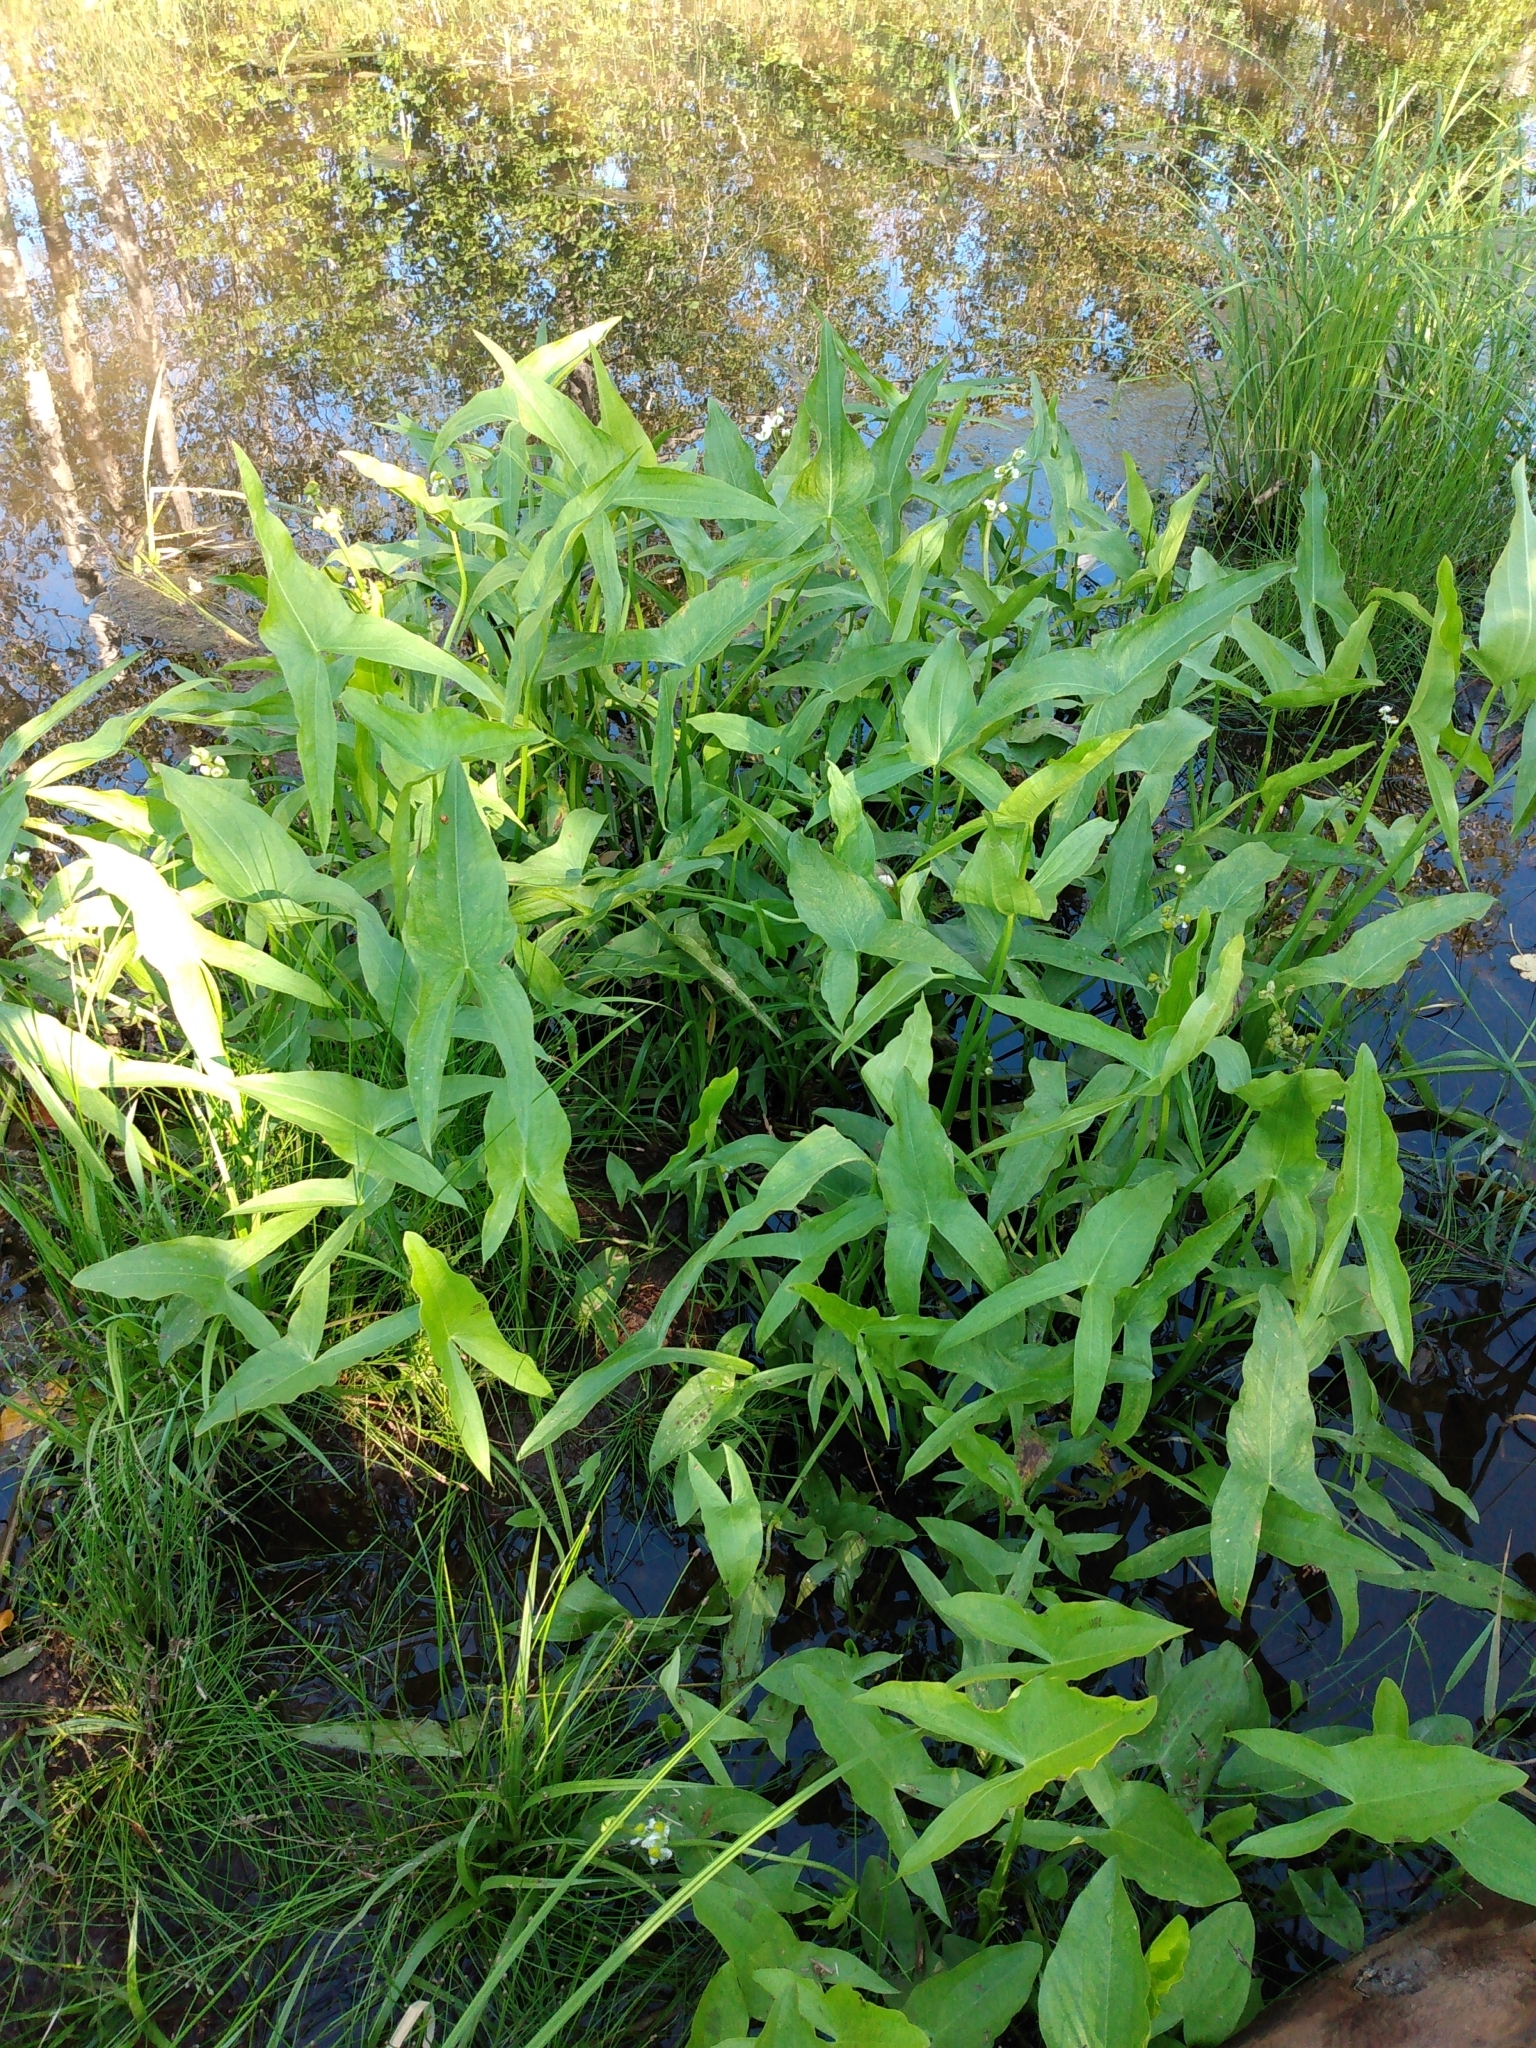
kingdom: Plantae
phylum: Tracheophyta
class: Liliopsida
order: Alismatales
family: Alismataceae
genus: Sagittaria
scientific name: Sagittaria latifolia
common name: Duck-potato
